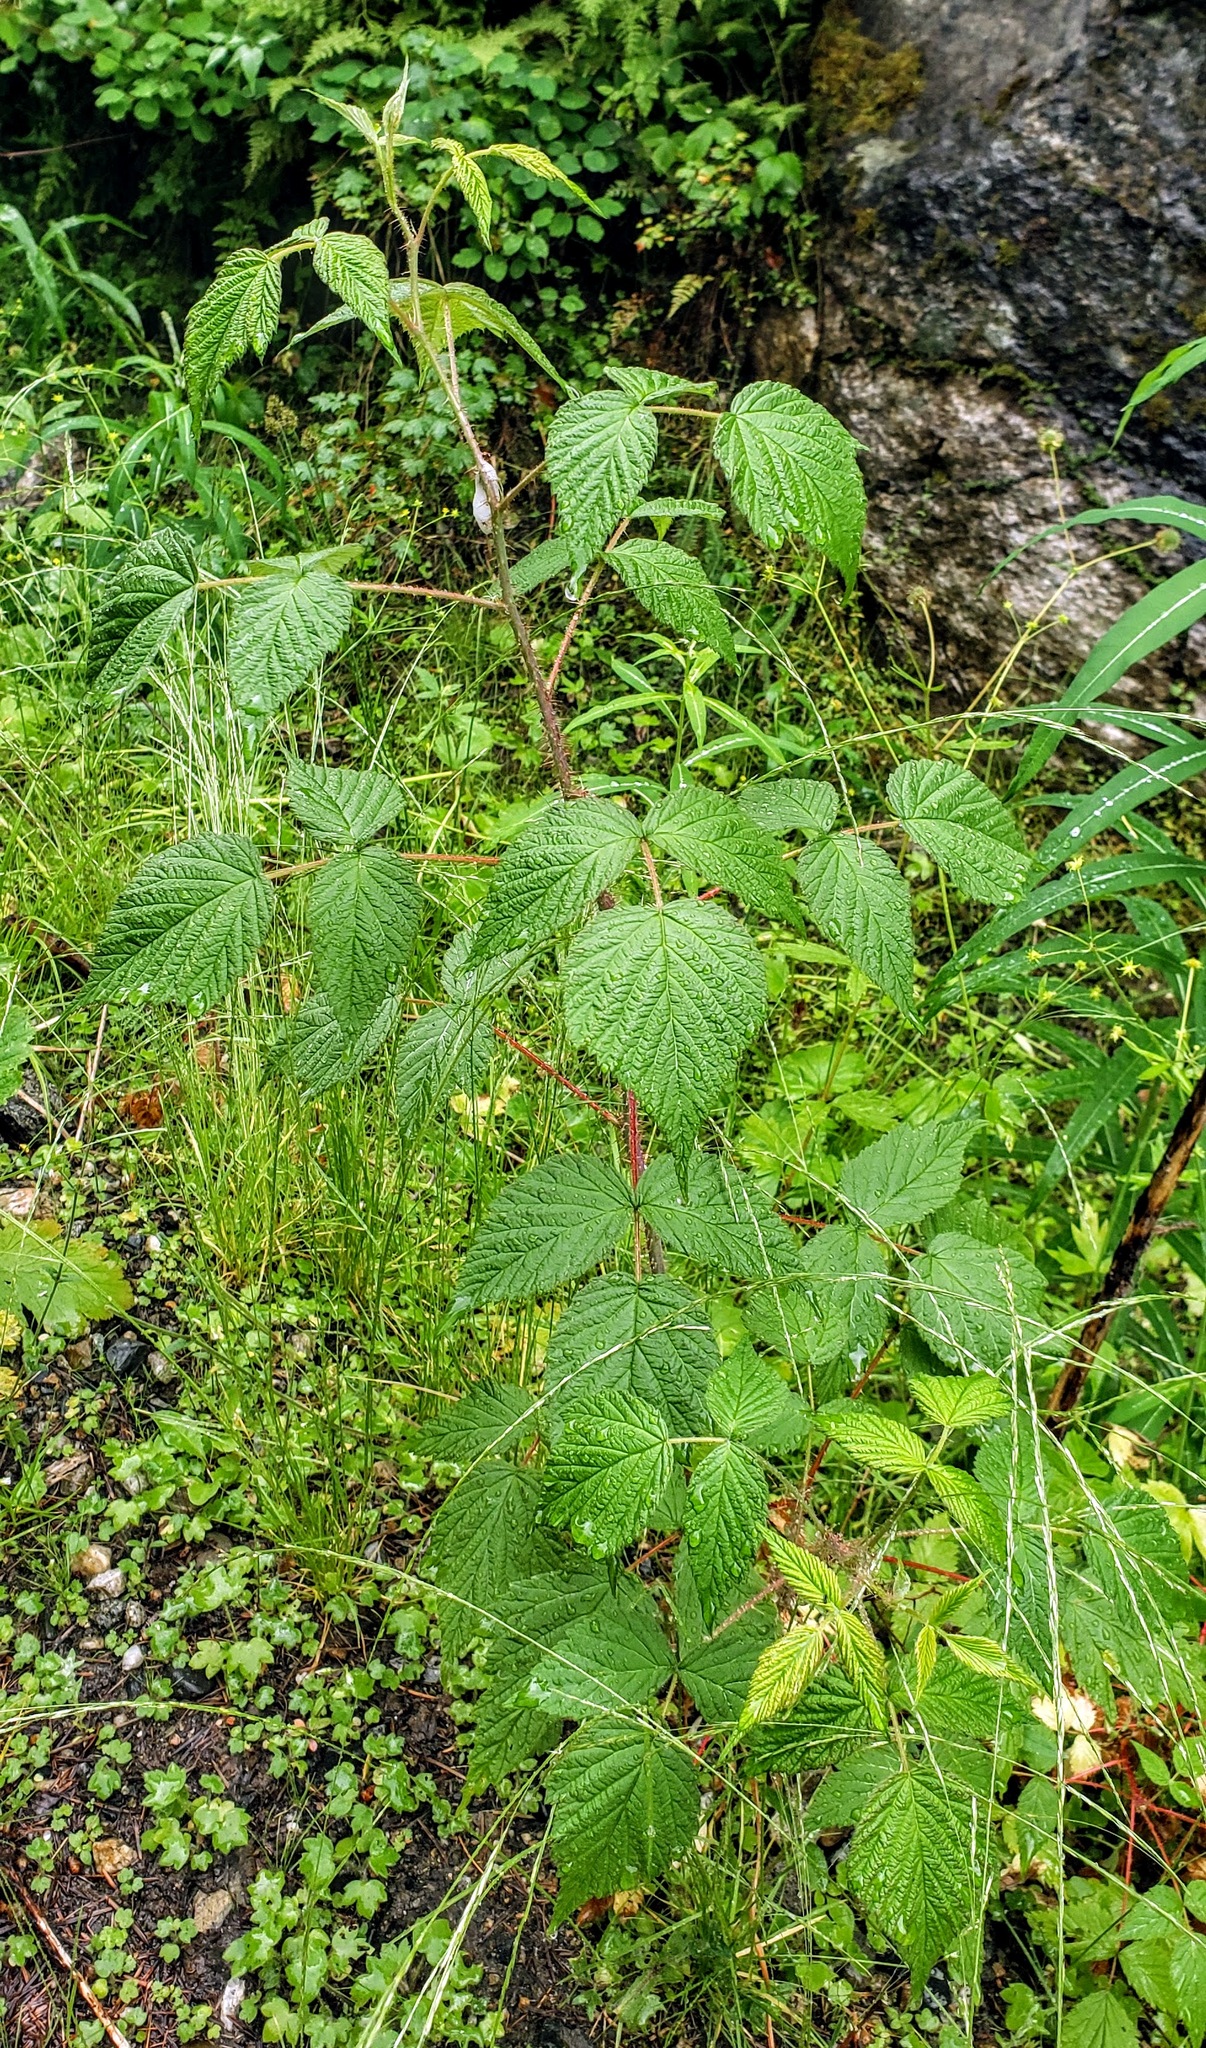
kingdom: Plantae
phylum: Tracheophyta
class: Magnoliopsida
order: Rosales
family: Rosaceae
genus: Rubus
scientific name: Rubus idaeus
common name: Raspberry
